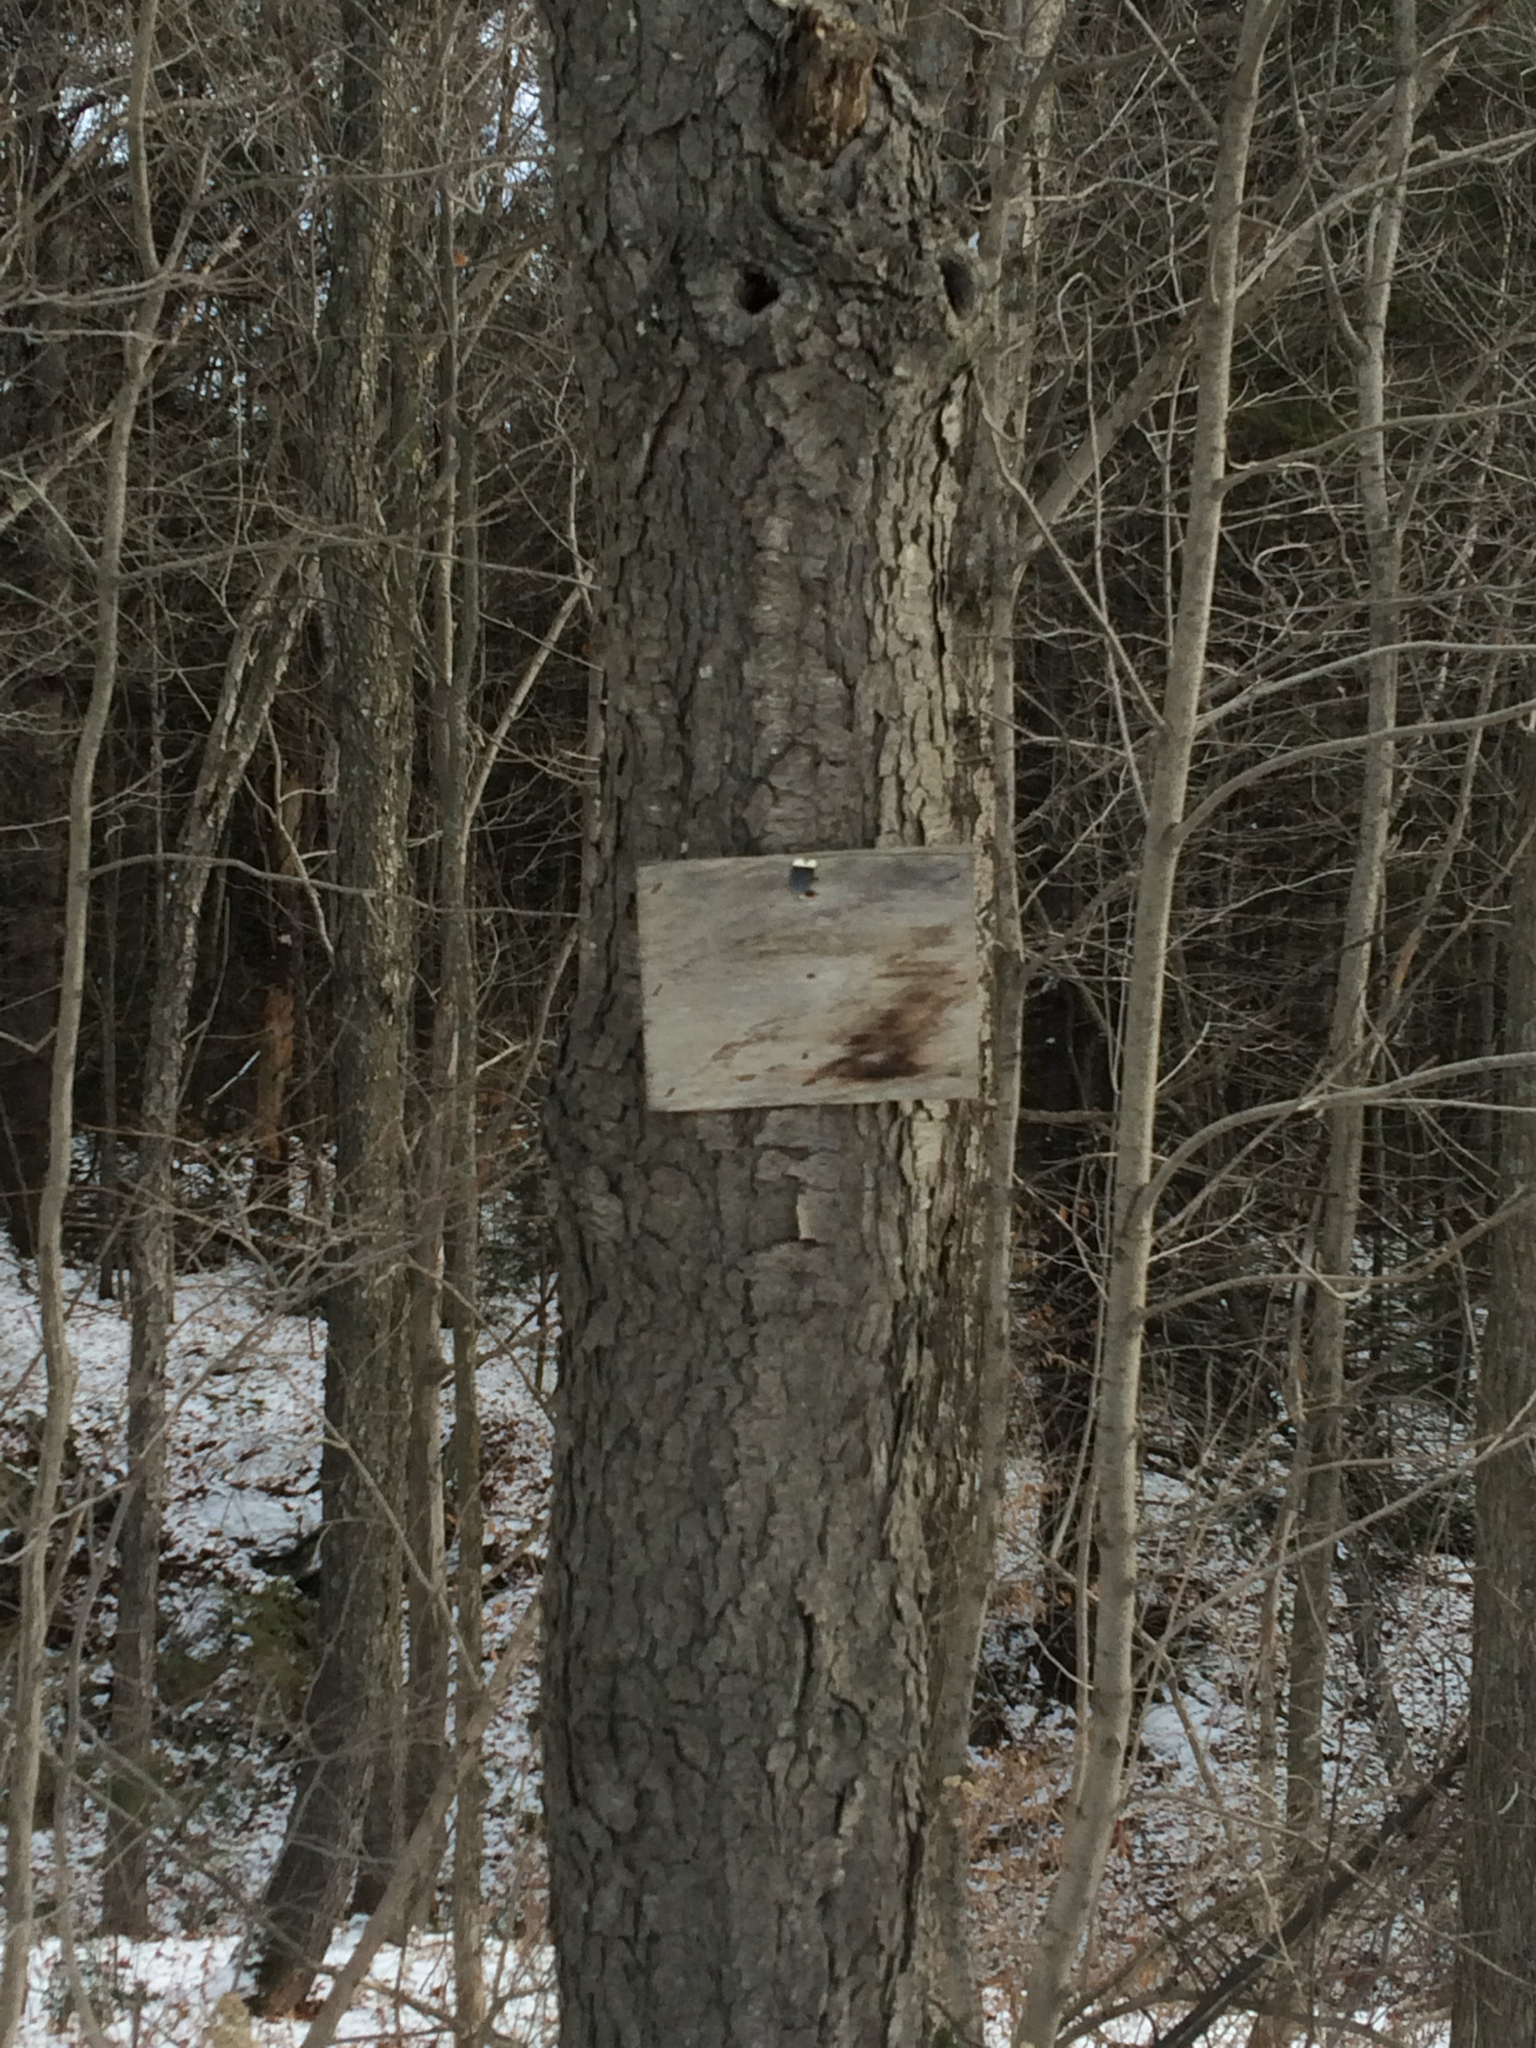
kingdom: Plantae
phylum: Tracheophyta
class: Magnoliopsida
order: Rosales
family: Rosaceae
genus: Prunus
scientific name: Prunus serotina
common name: Black cherry
